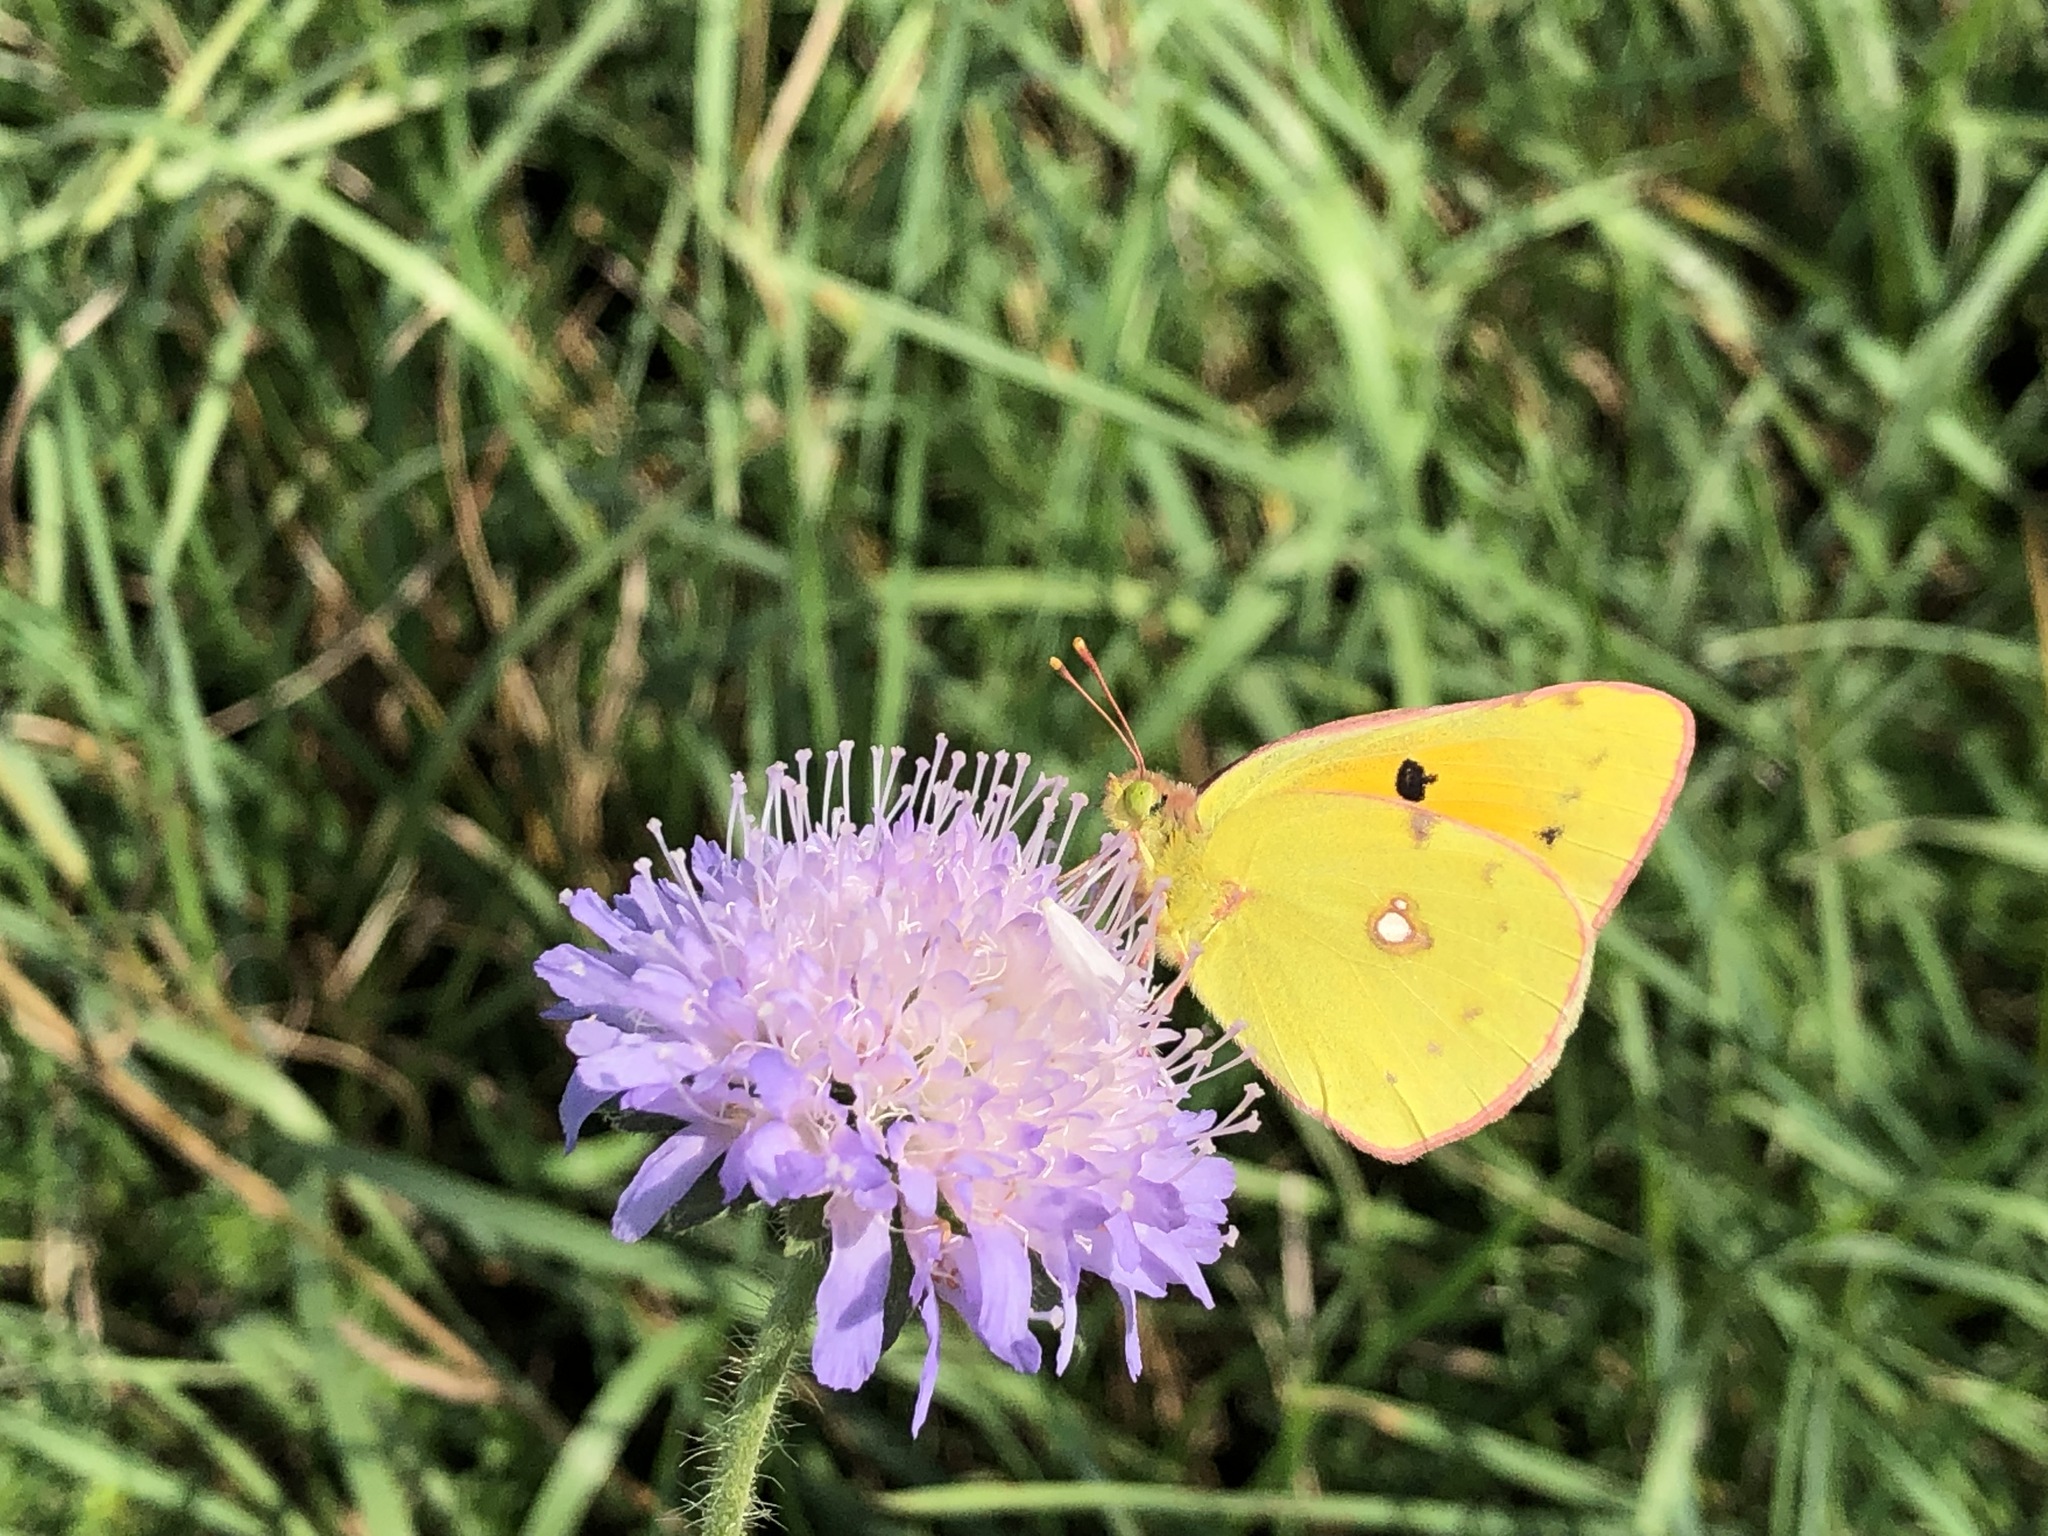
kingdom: Animalia
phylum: Arthropoda
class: Insecta
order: Lepidoptera
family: Pieridae
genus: Colias
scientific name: Colias croceus
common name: Clouded yellow
